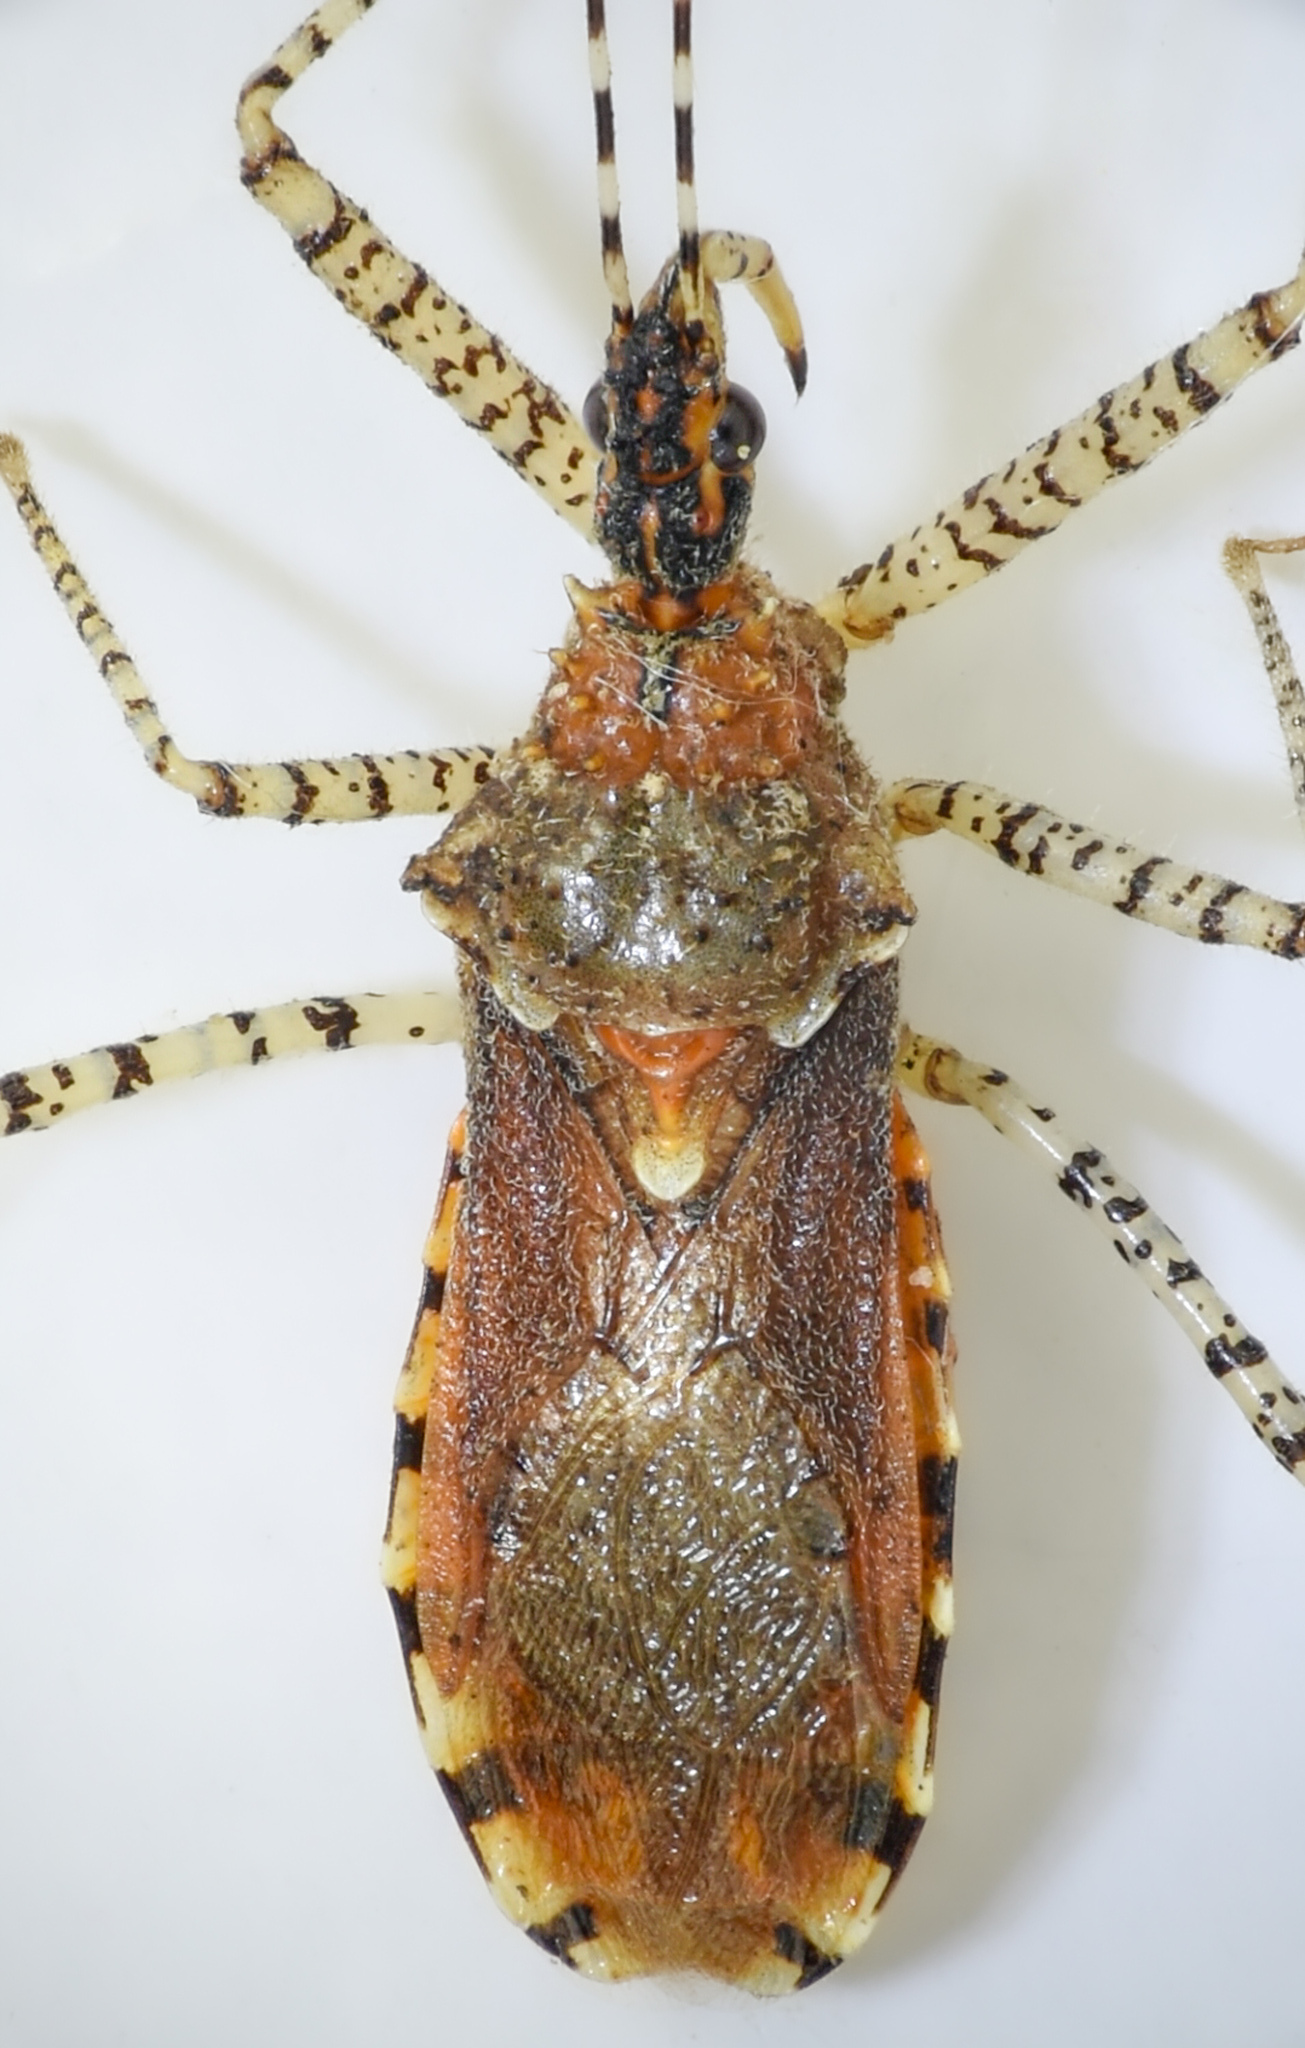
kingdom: Animalia
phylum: Arthropoda
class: Insecta
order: Hemiptera
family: Reduviidae
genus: Pselliopus
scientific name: Pselliopus spinicollis
